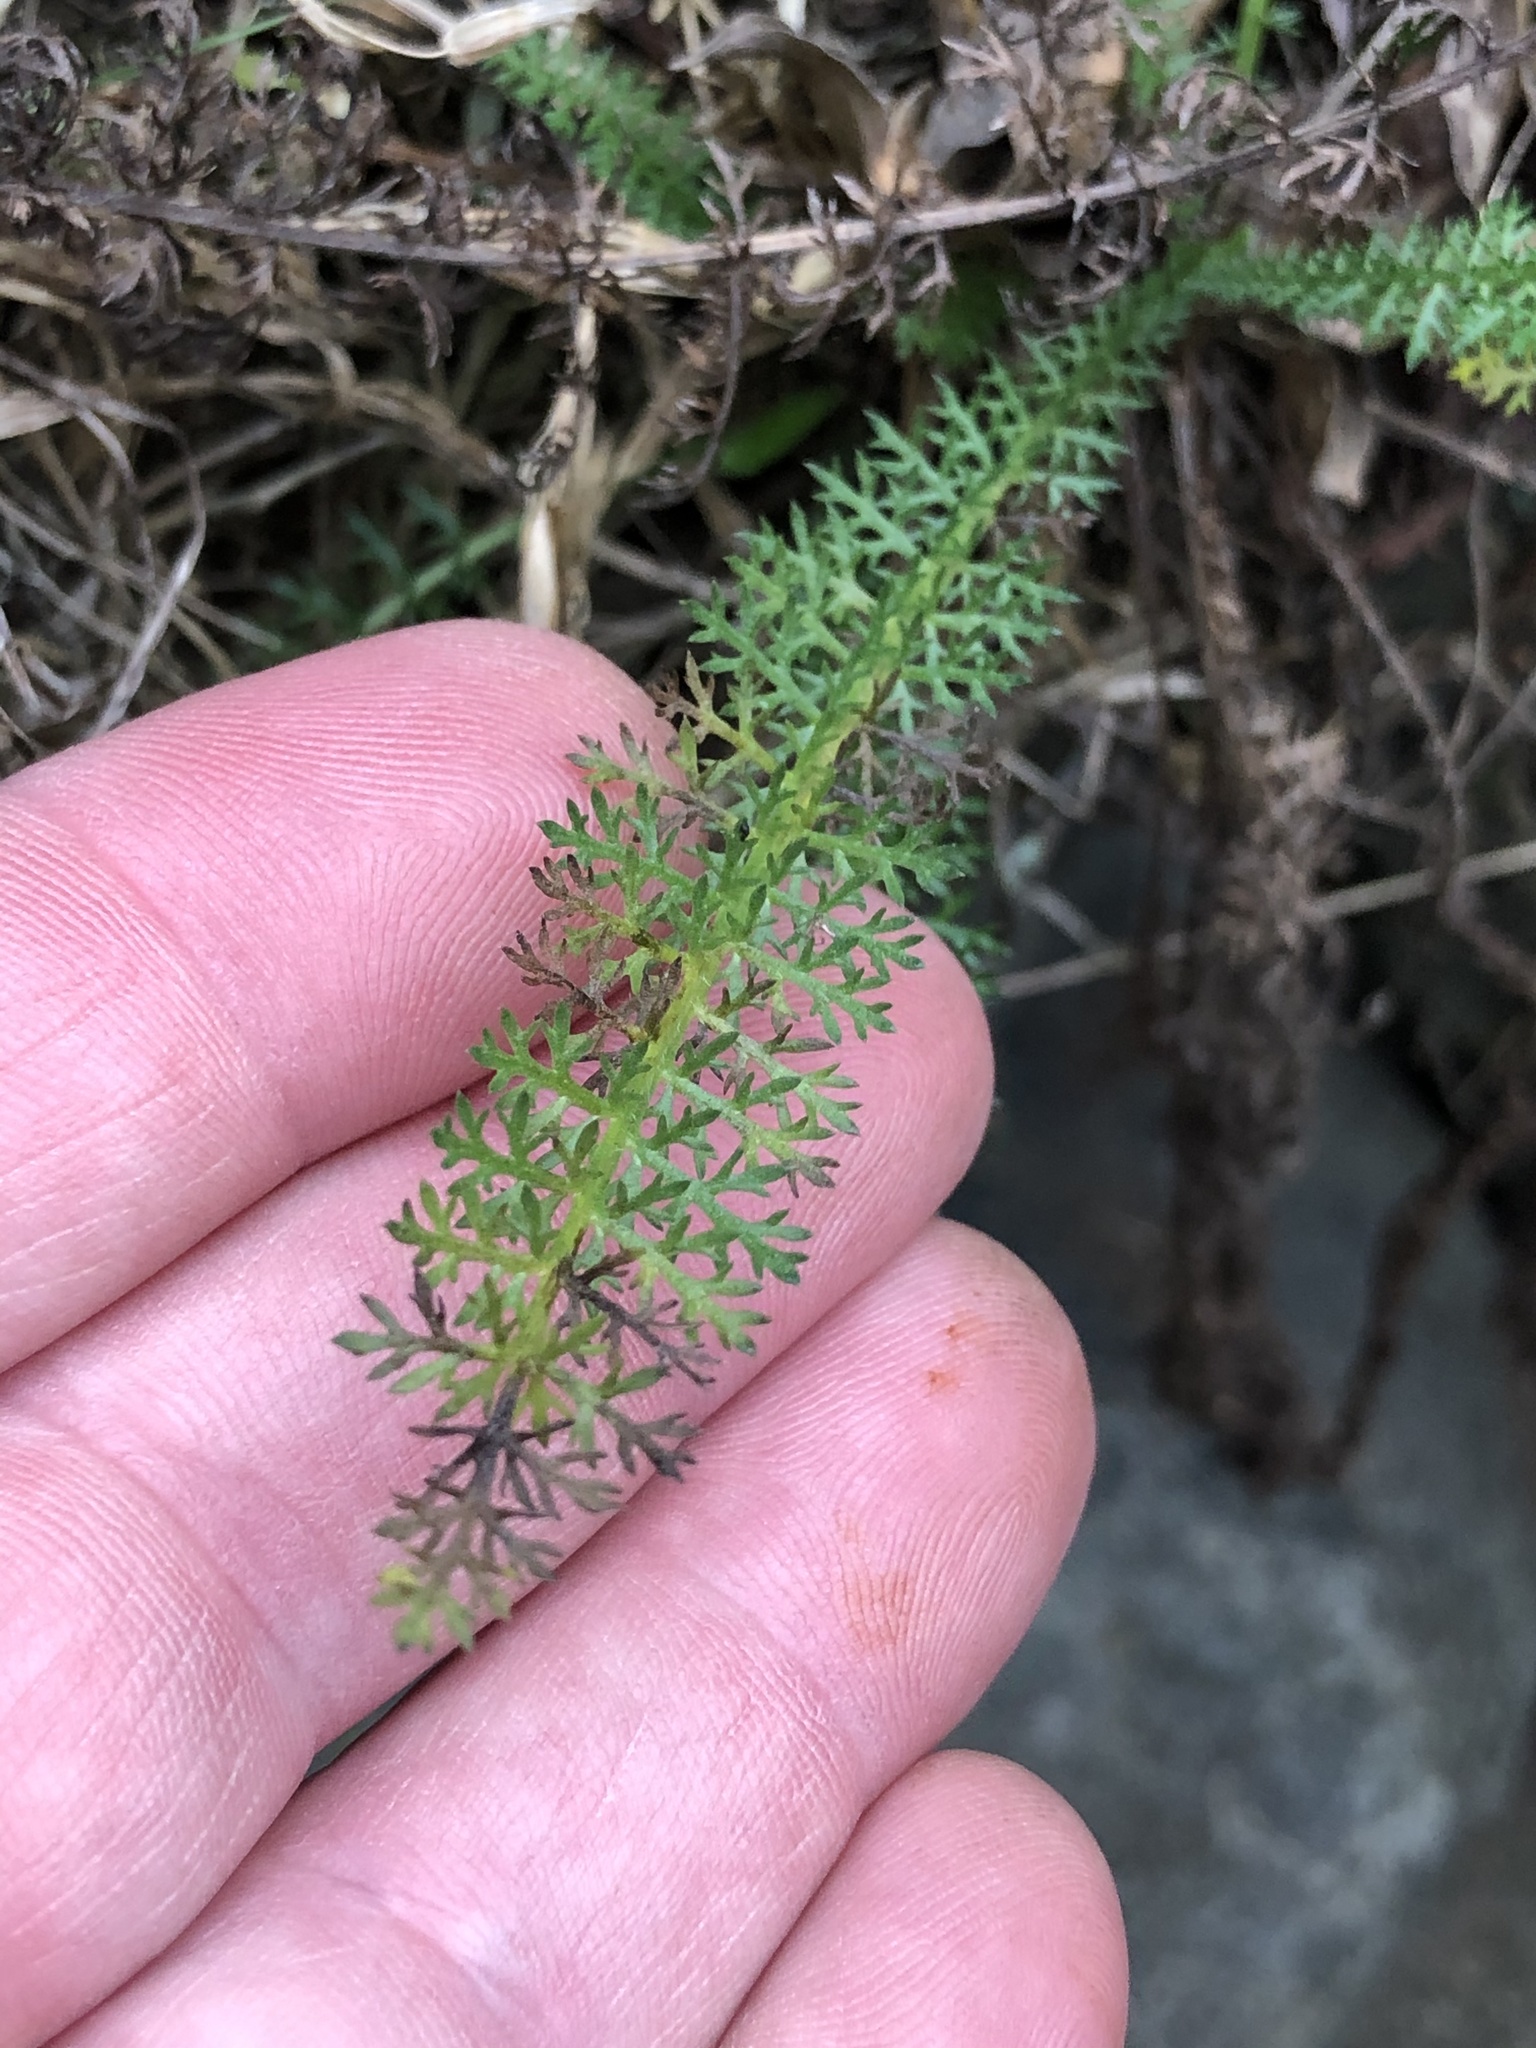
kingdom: Plantae
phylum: Tracheophyta
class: Magnoliopsida
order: Asterales
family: Asteraceae
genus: Achillea
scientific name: Achillea millefolium
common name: Yarrow
